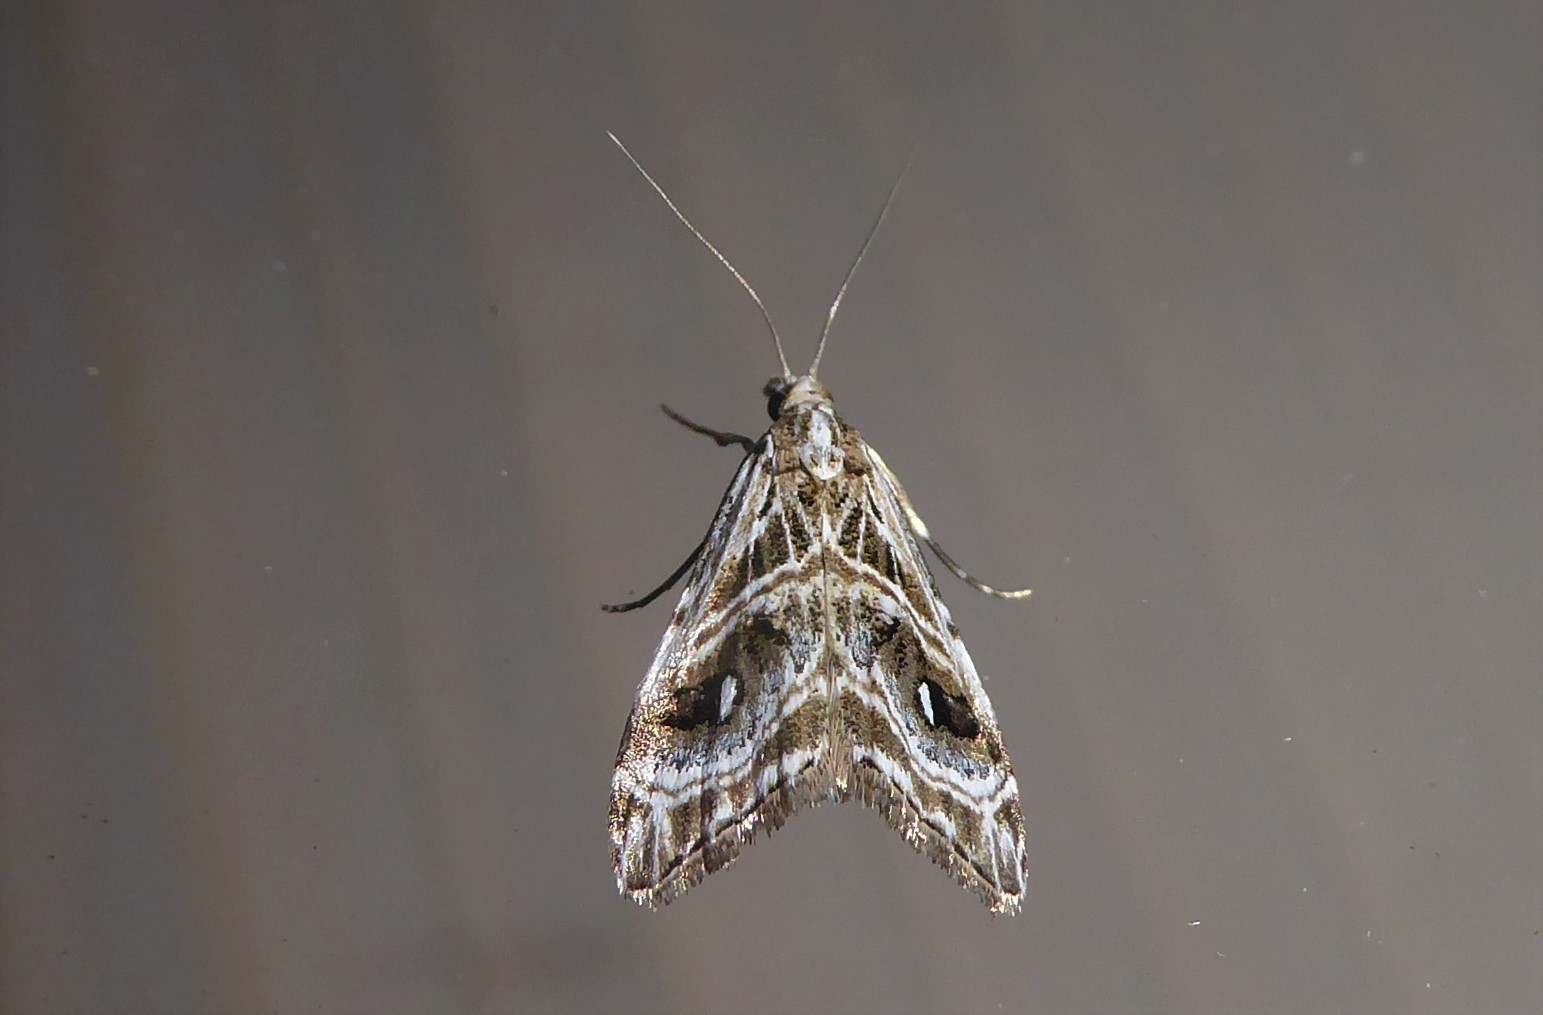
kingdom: Animalia
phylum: Arthropoda
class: Insecta
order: Lepidoptera
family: Crambidae
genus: Gadira
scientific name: Gadira acerella
